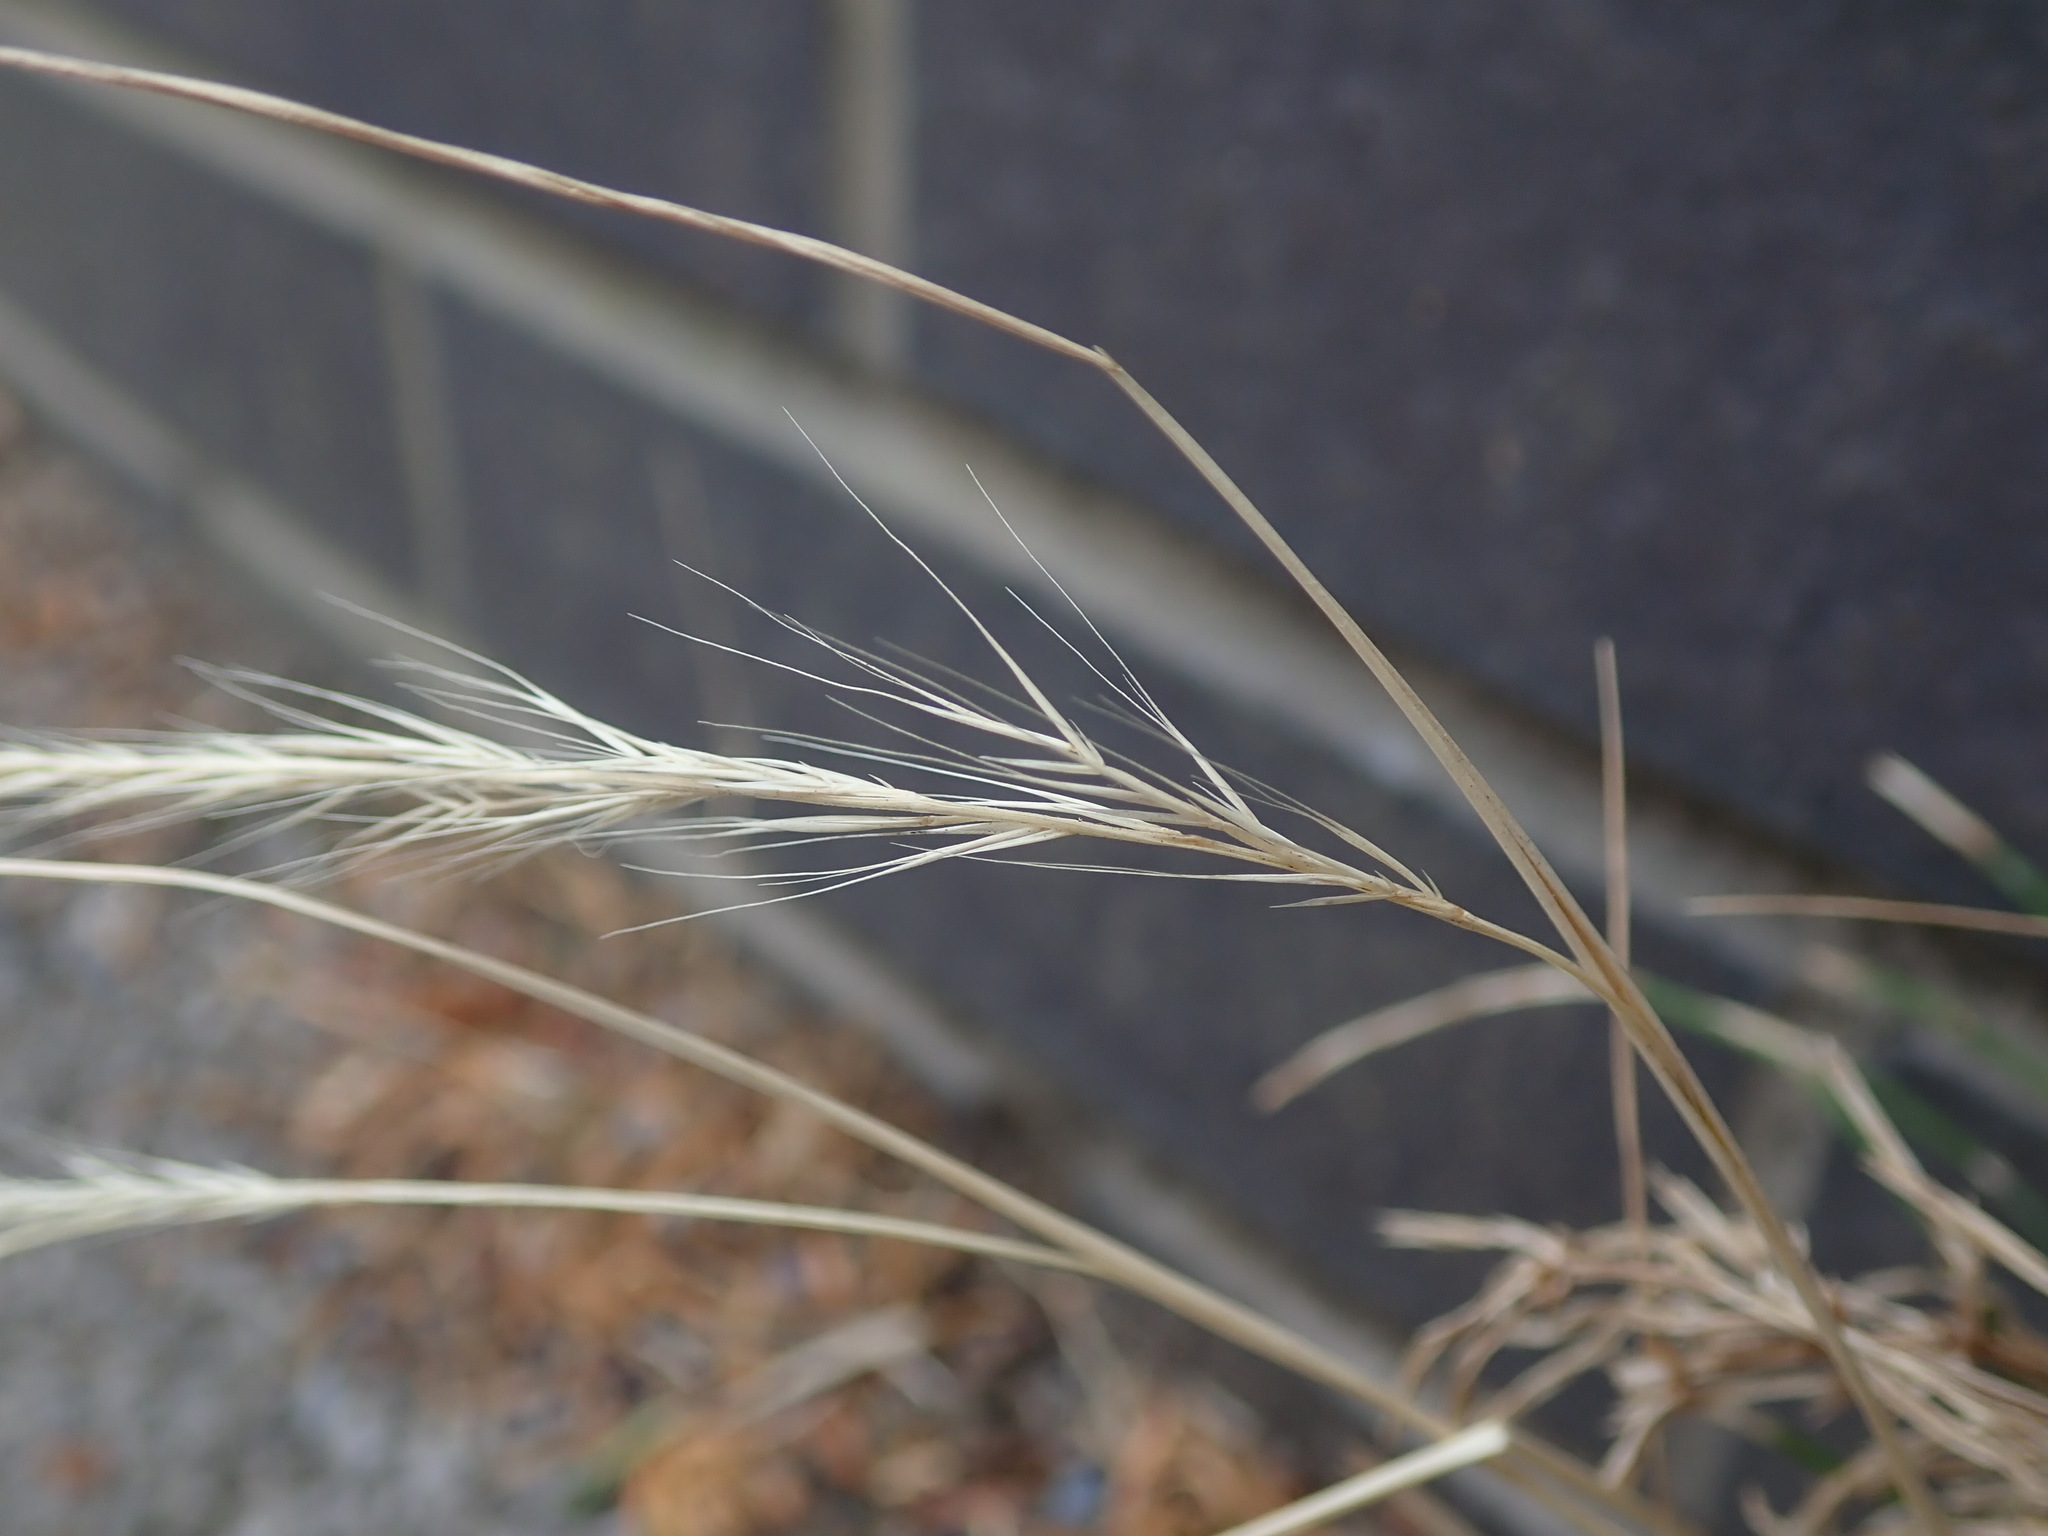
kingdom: Plantae
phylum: Tracheophyta
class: Liliopsida
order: Poales
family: Poaceae
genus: Festuca
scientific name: Festuca myuros
